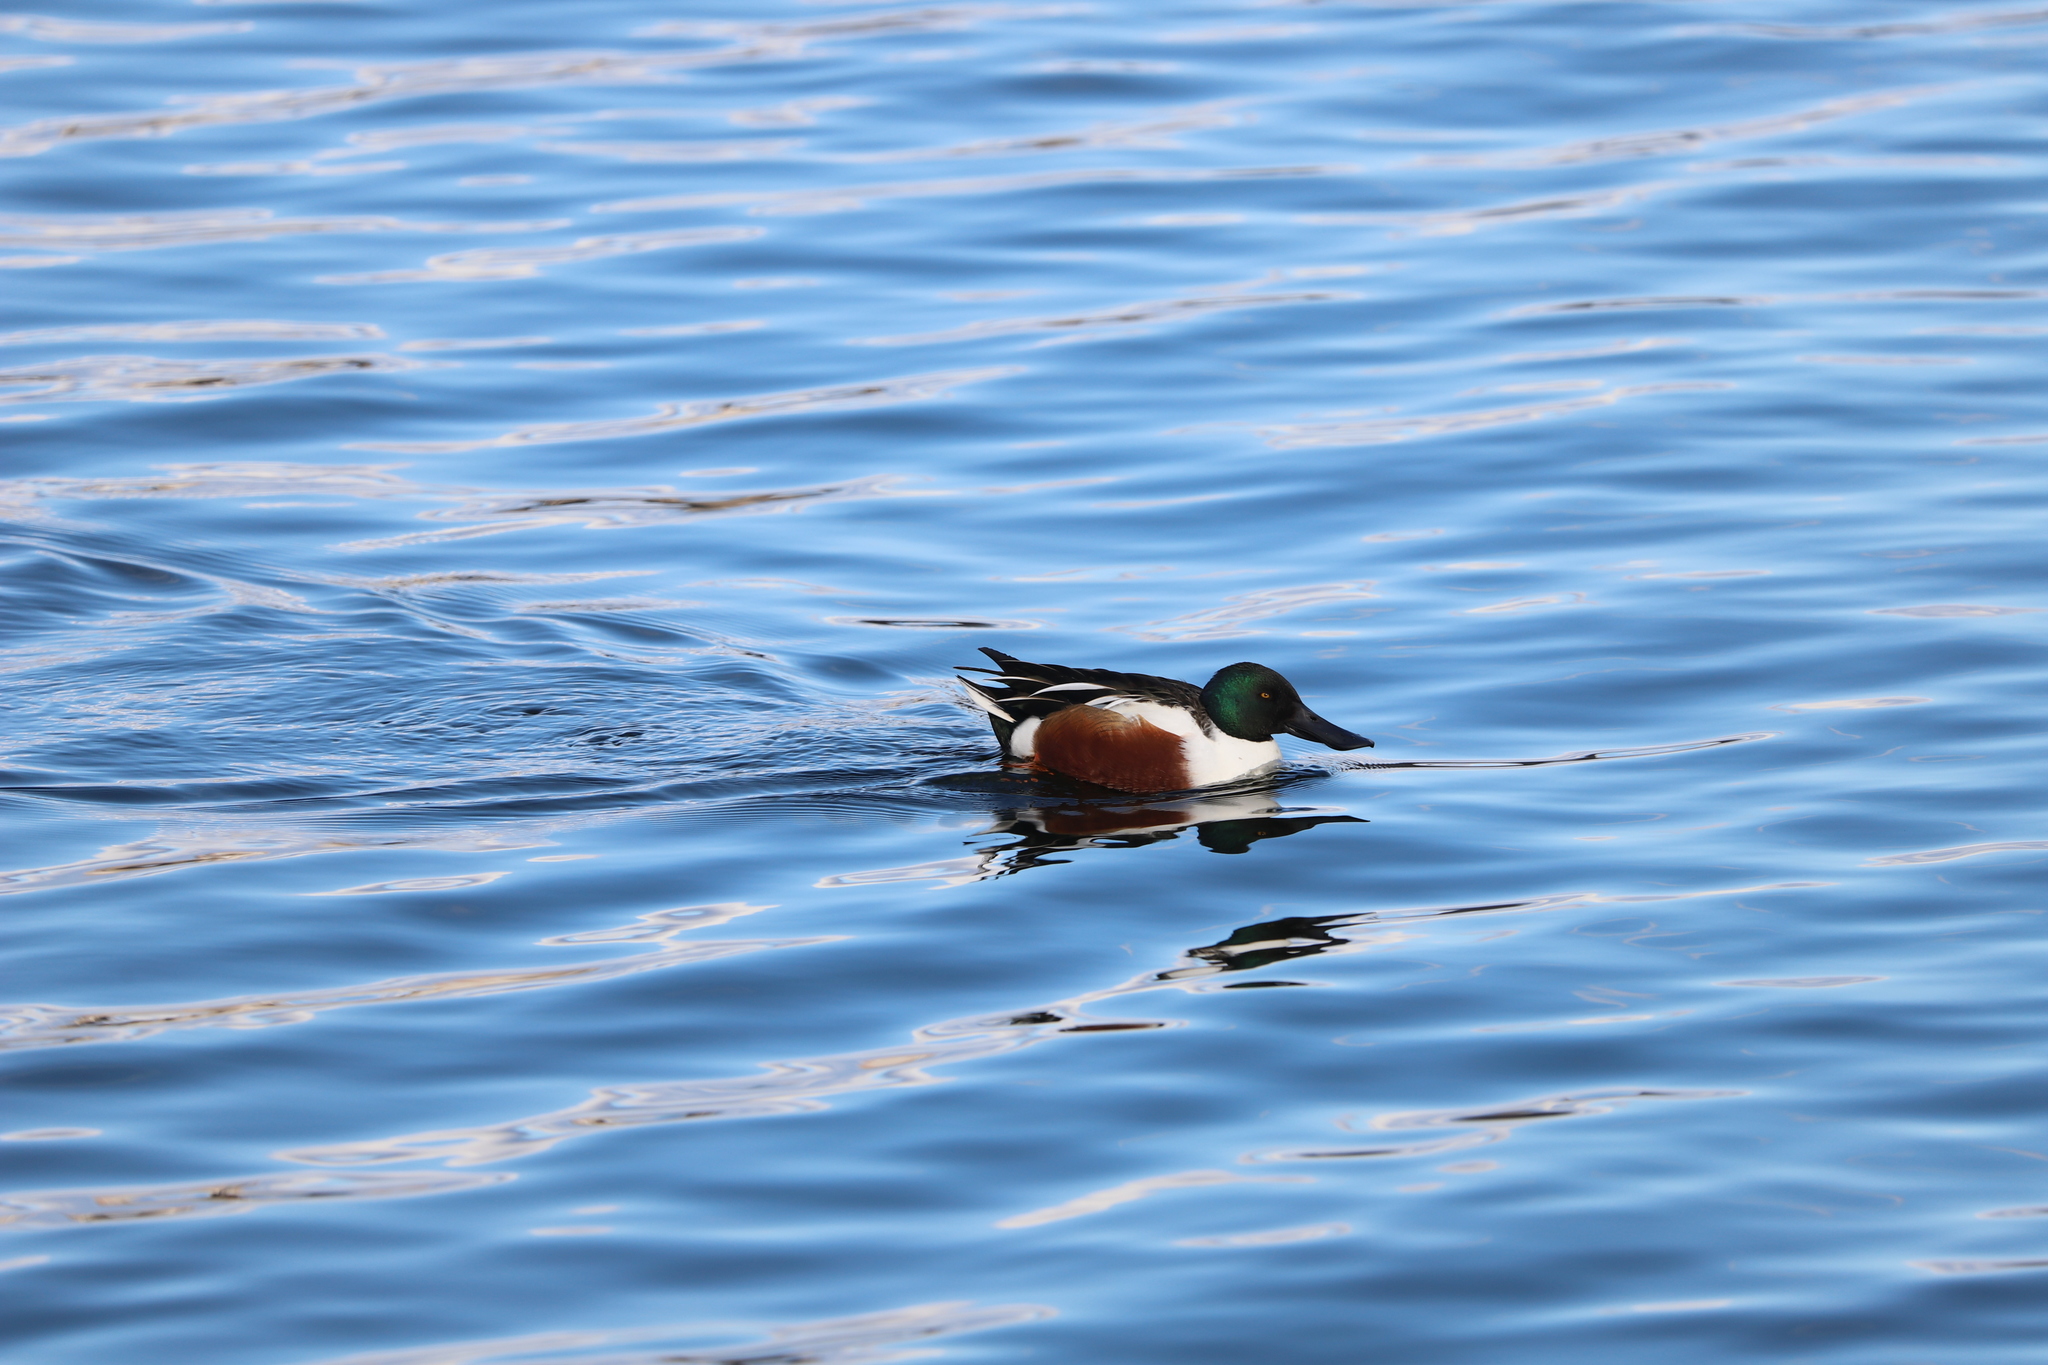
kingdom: Animalia
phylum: Chordata
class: Aves
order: Anseriformes
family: Anatidae
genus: Spatula
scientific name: Spatula clypeata
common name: Northern shoveler
